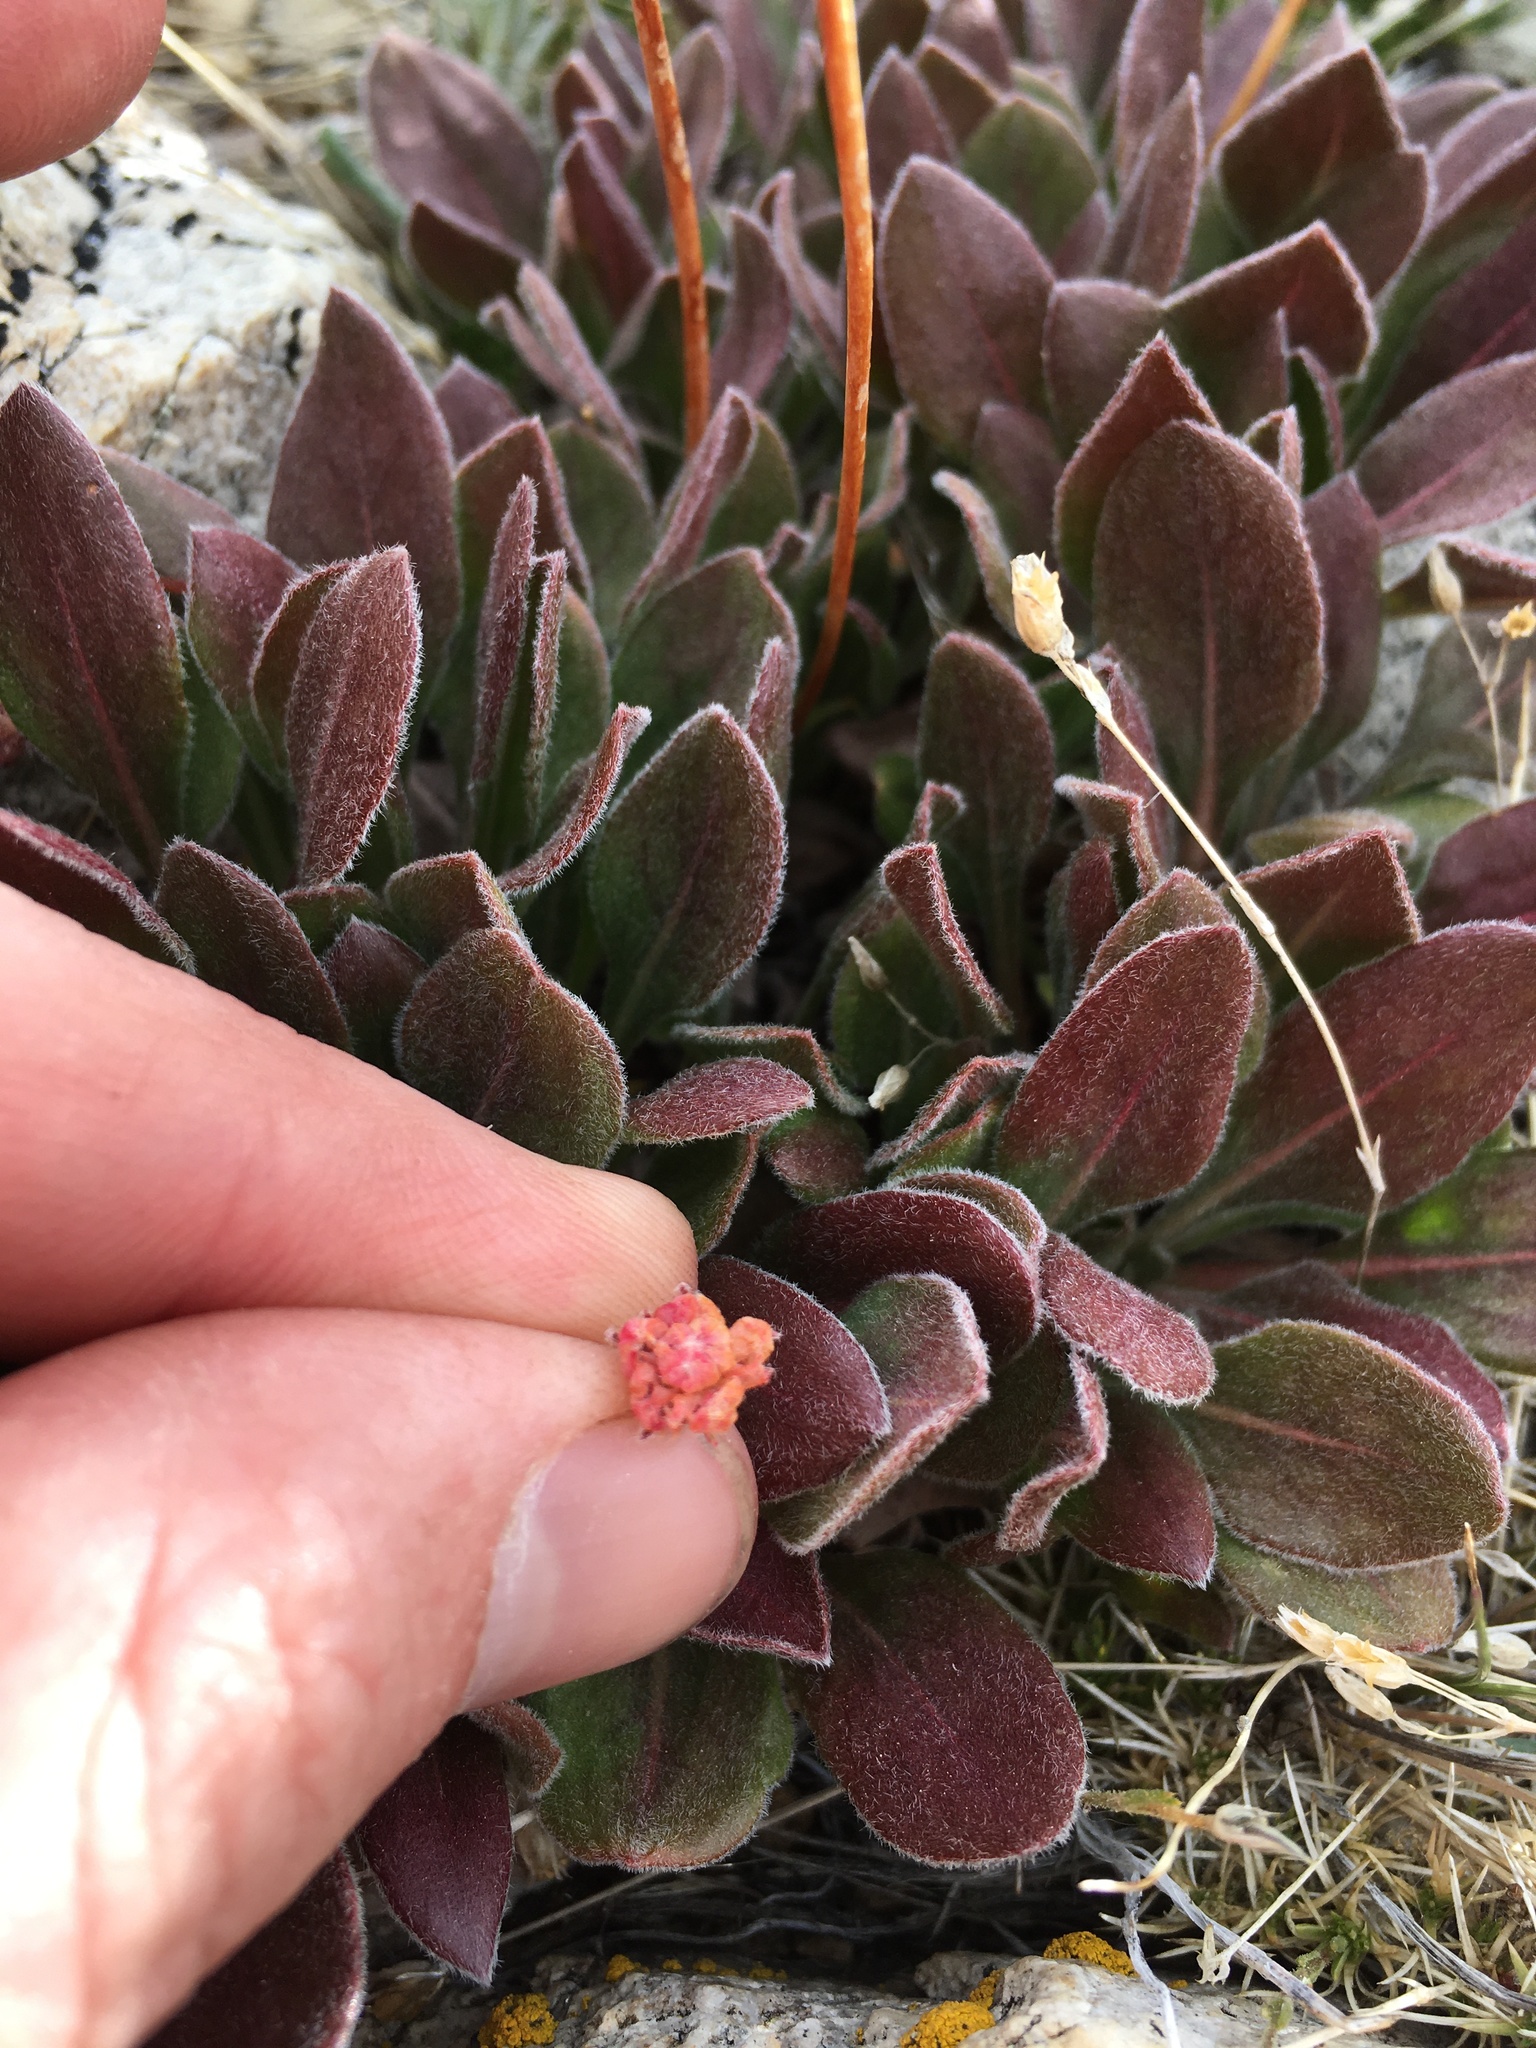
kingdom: Plantae
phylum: Tracheophyta
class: Magnoliopsida
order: Caryophyllales
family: Polygonaceae
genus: Eriogonum
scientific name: Eriogonum latens
